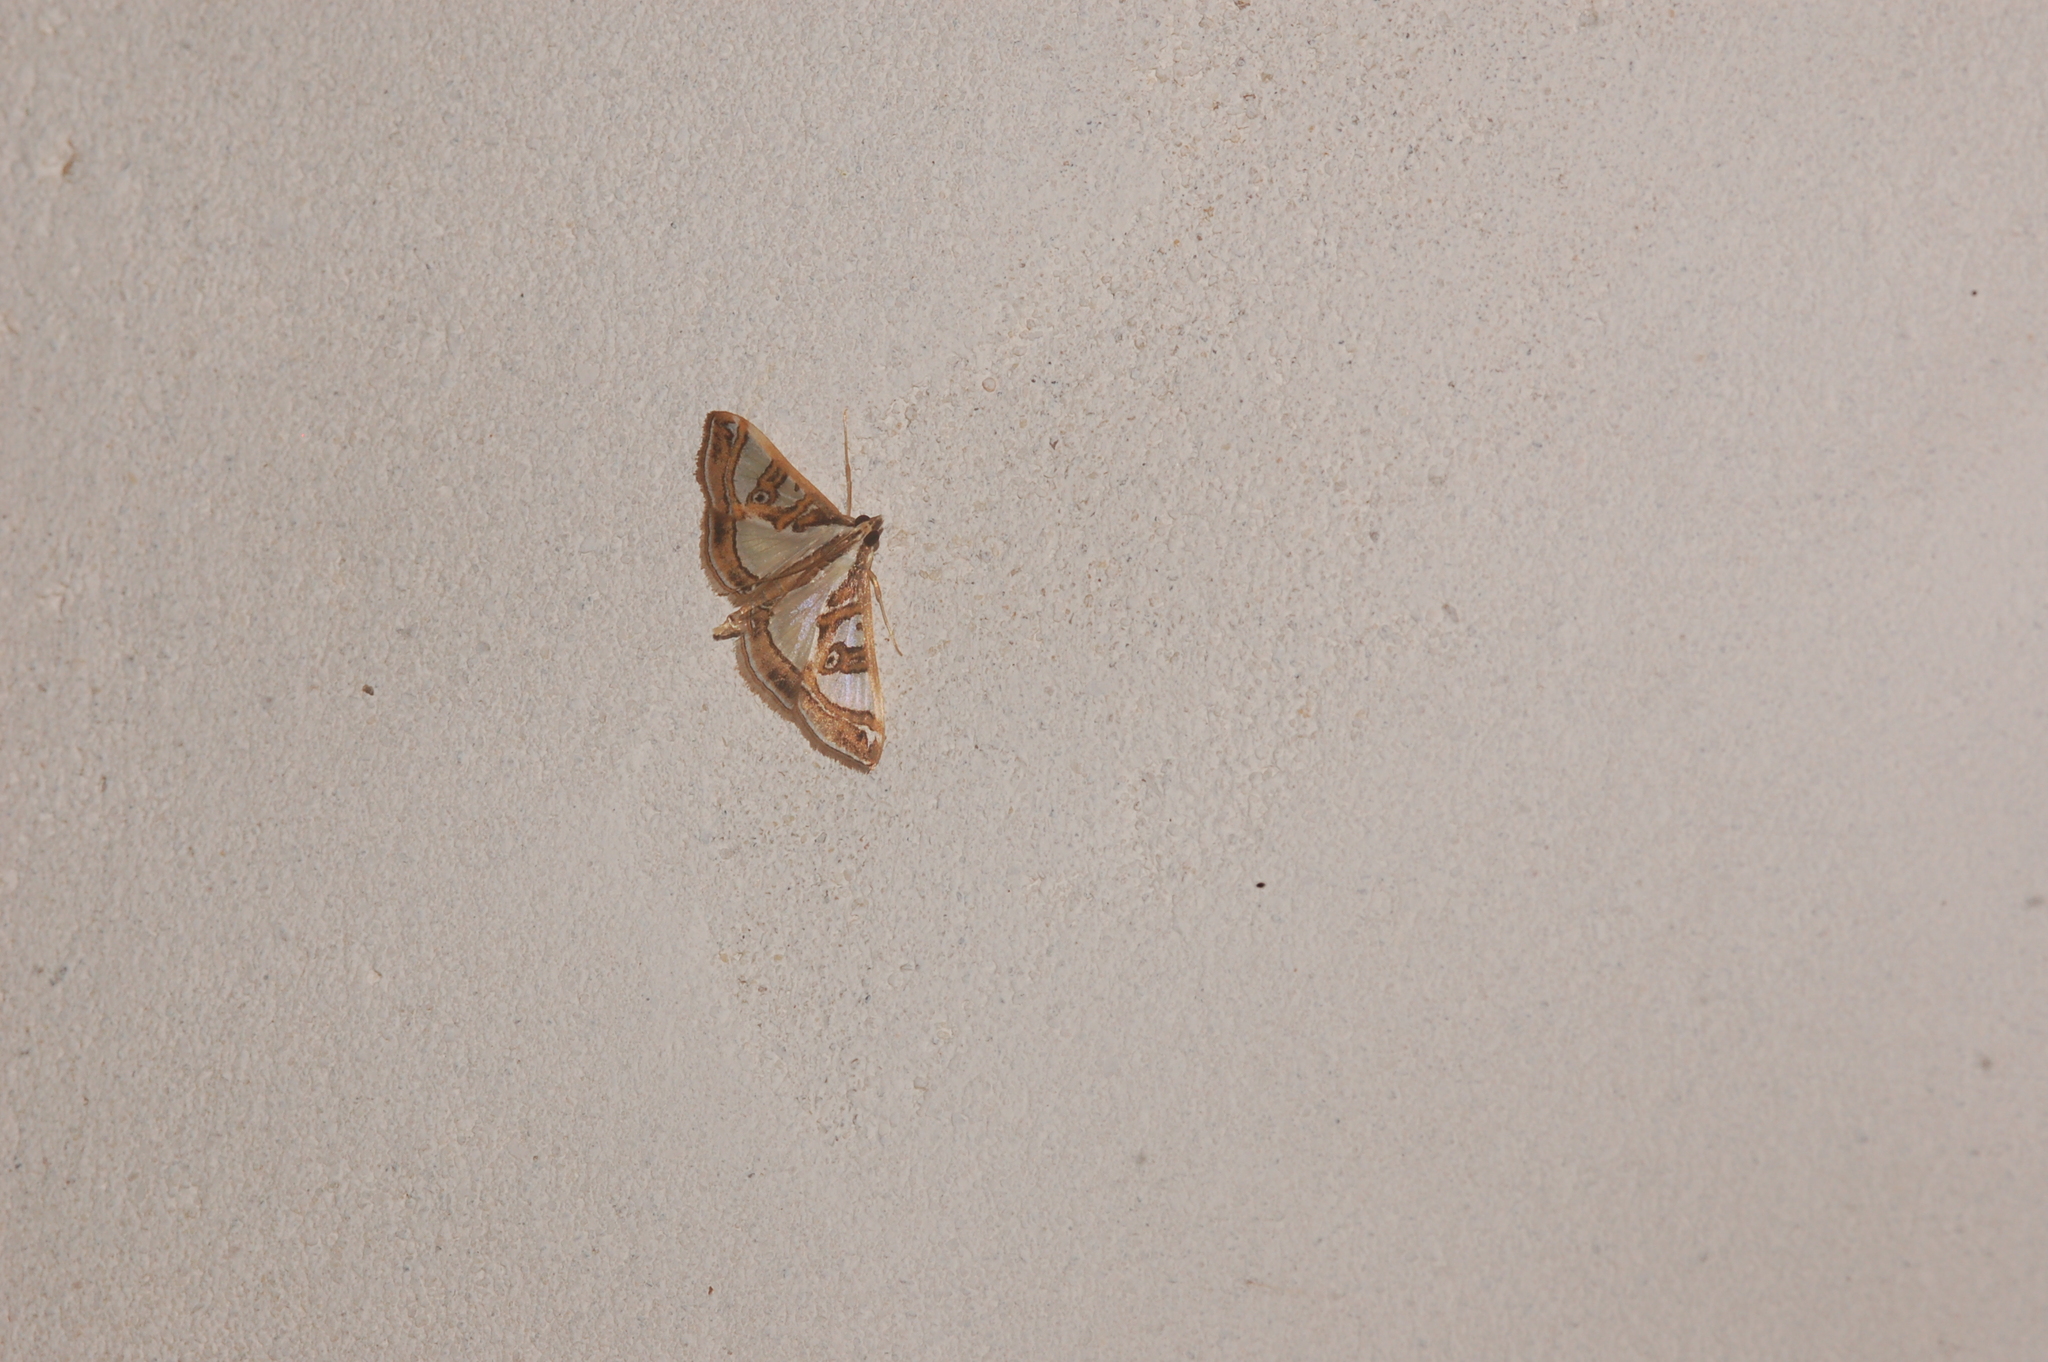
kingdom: Animalia
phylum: Arthropoda
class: Insecta
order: Lepidoptera
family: Crambidae
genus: Glyphodes
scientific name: Glyphodes pyloalis
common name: Lesser mulberry snout moth
